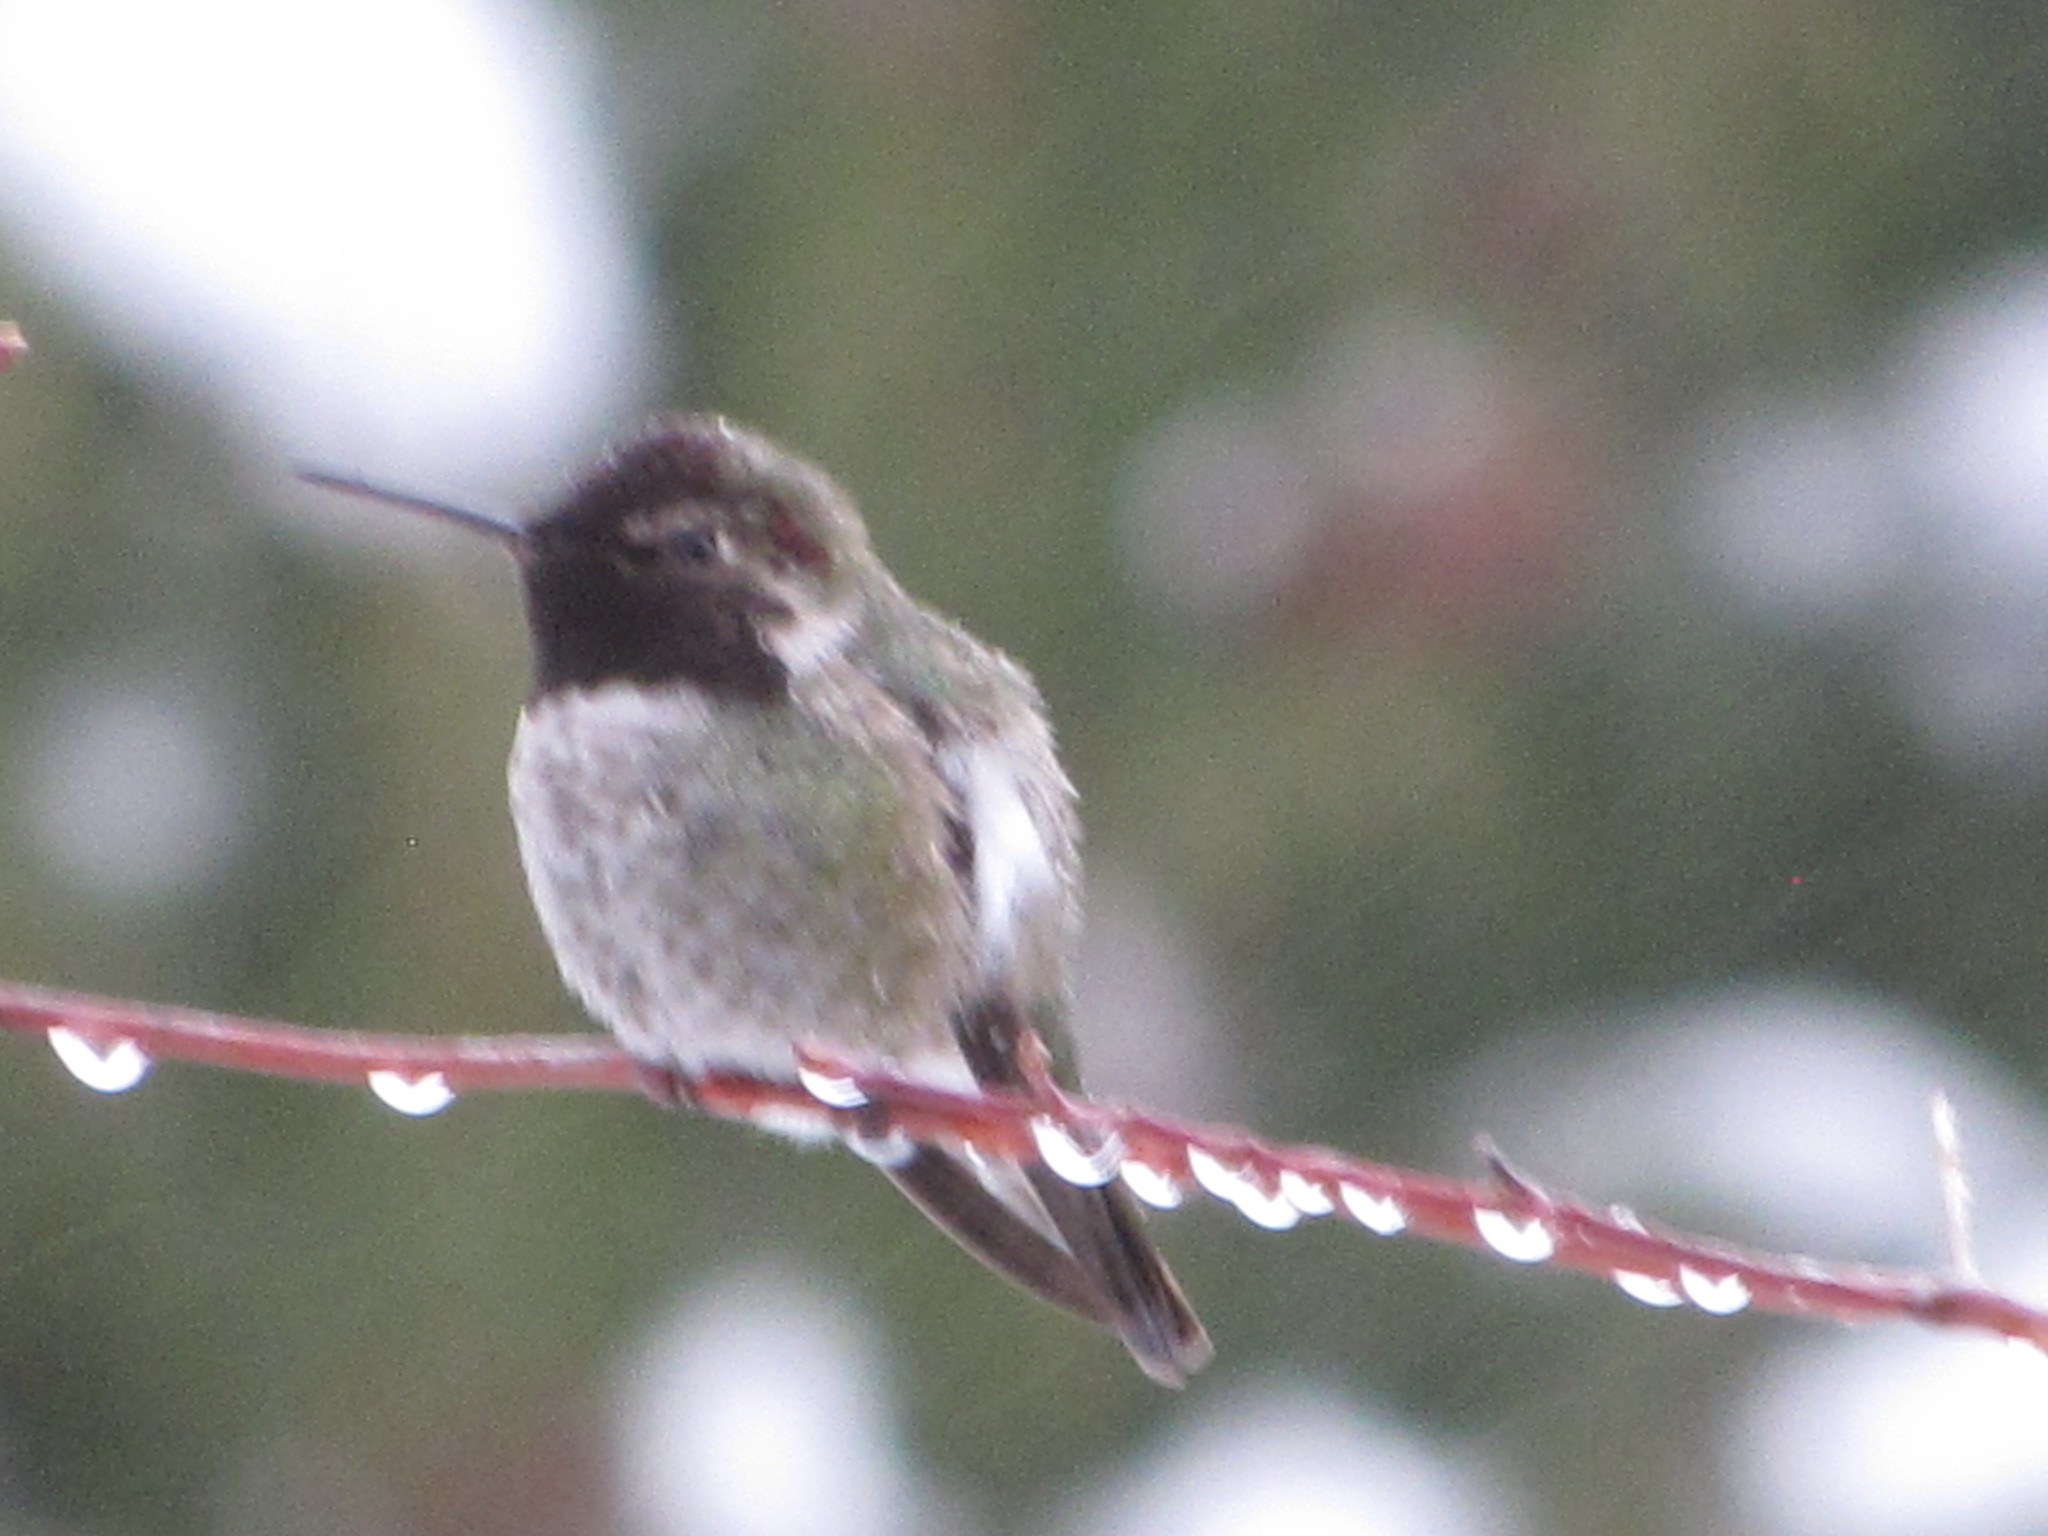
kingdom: Animalia
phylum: Chordata
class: Aves
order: Apodiformes
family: Trochilidae
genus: Calypte
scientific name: Calypte anna
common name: Anna's hummingbird
